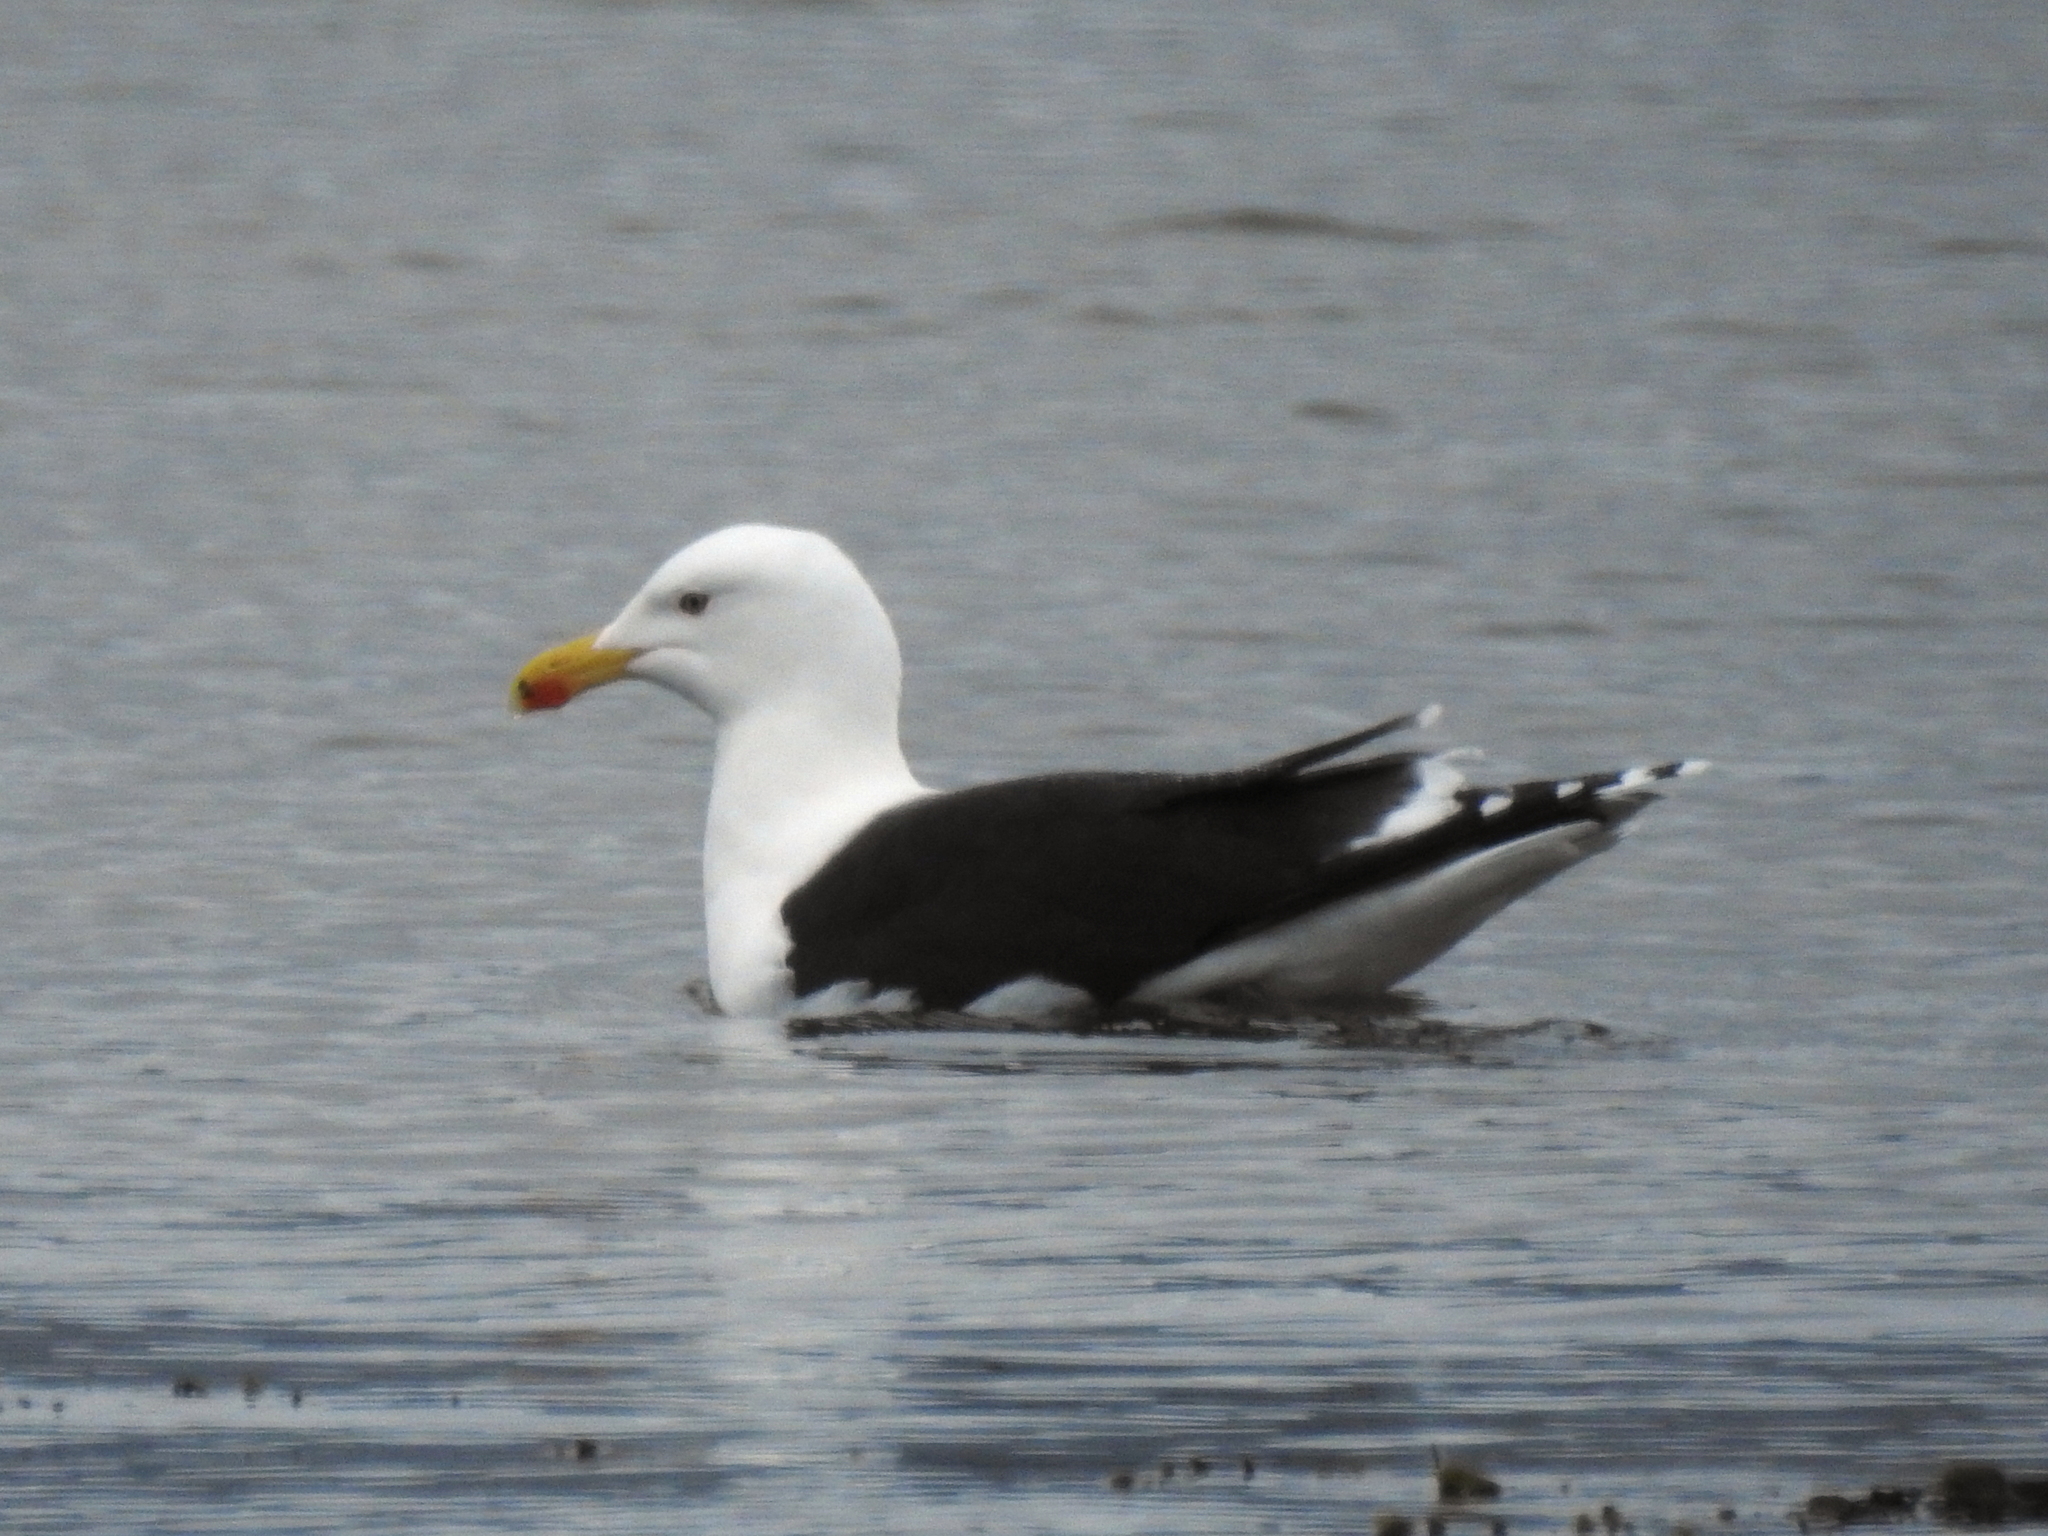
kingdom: Animalia
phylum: Chordata
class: Aves
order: Charadriiformes
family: Laridae
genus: Larus
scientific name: Larus marinus
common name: Great black-backed gull
